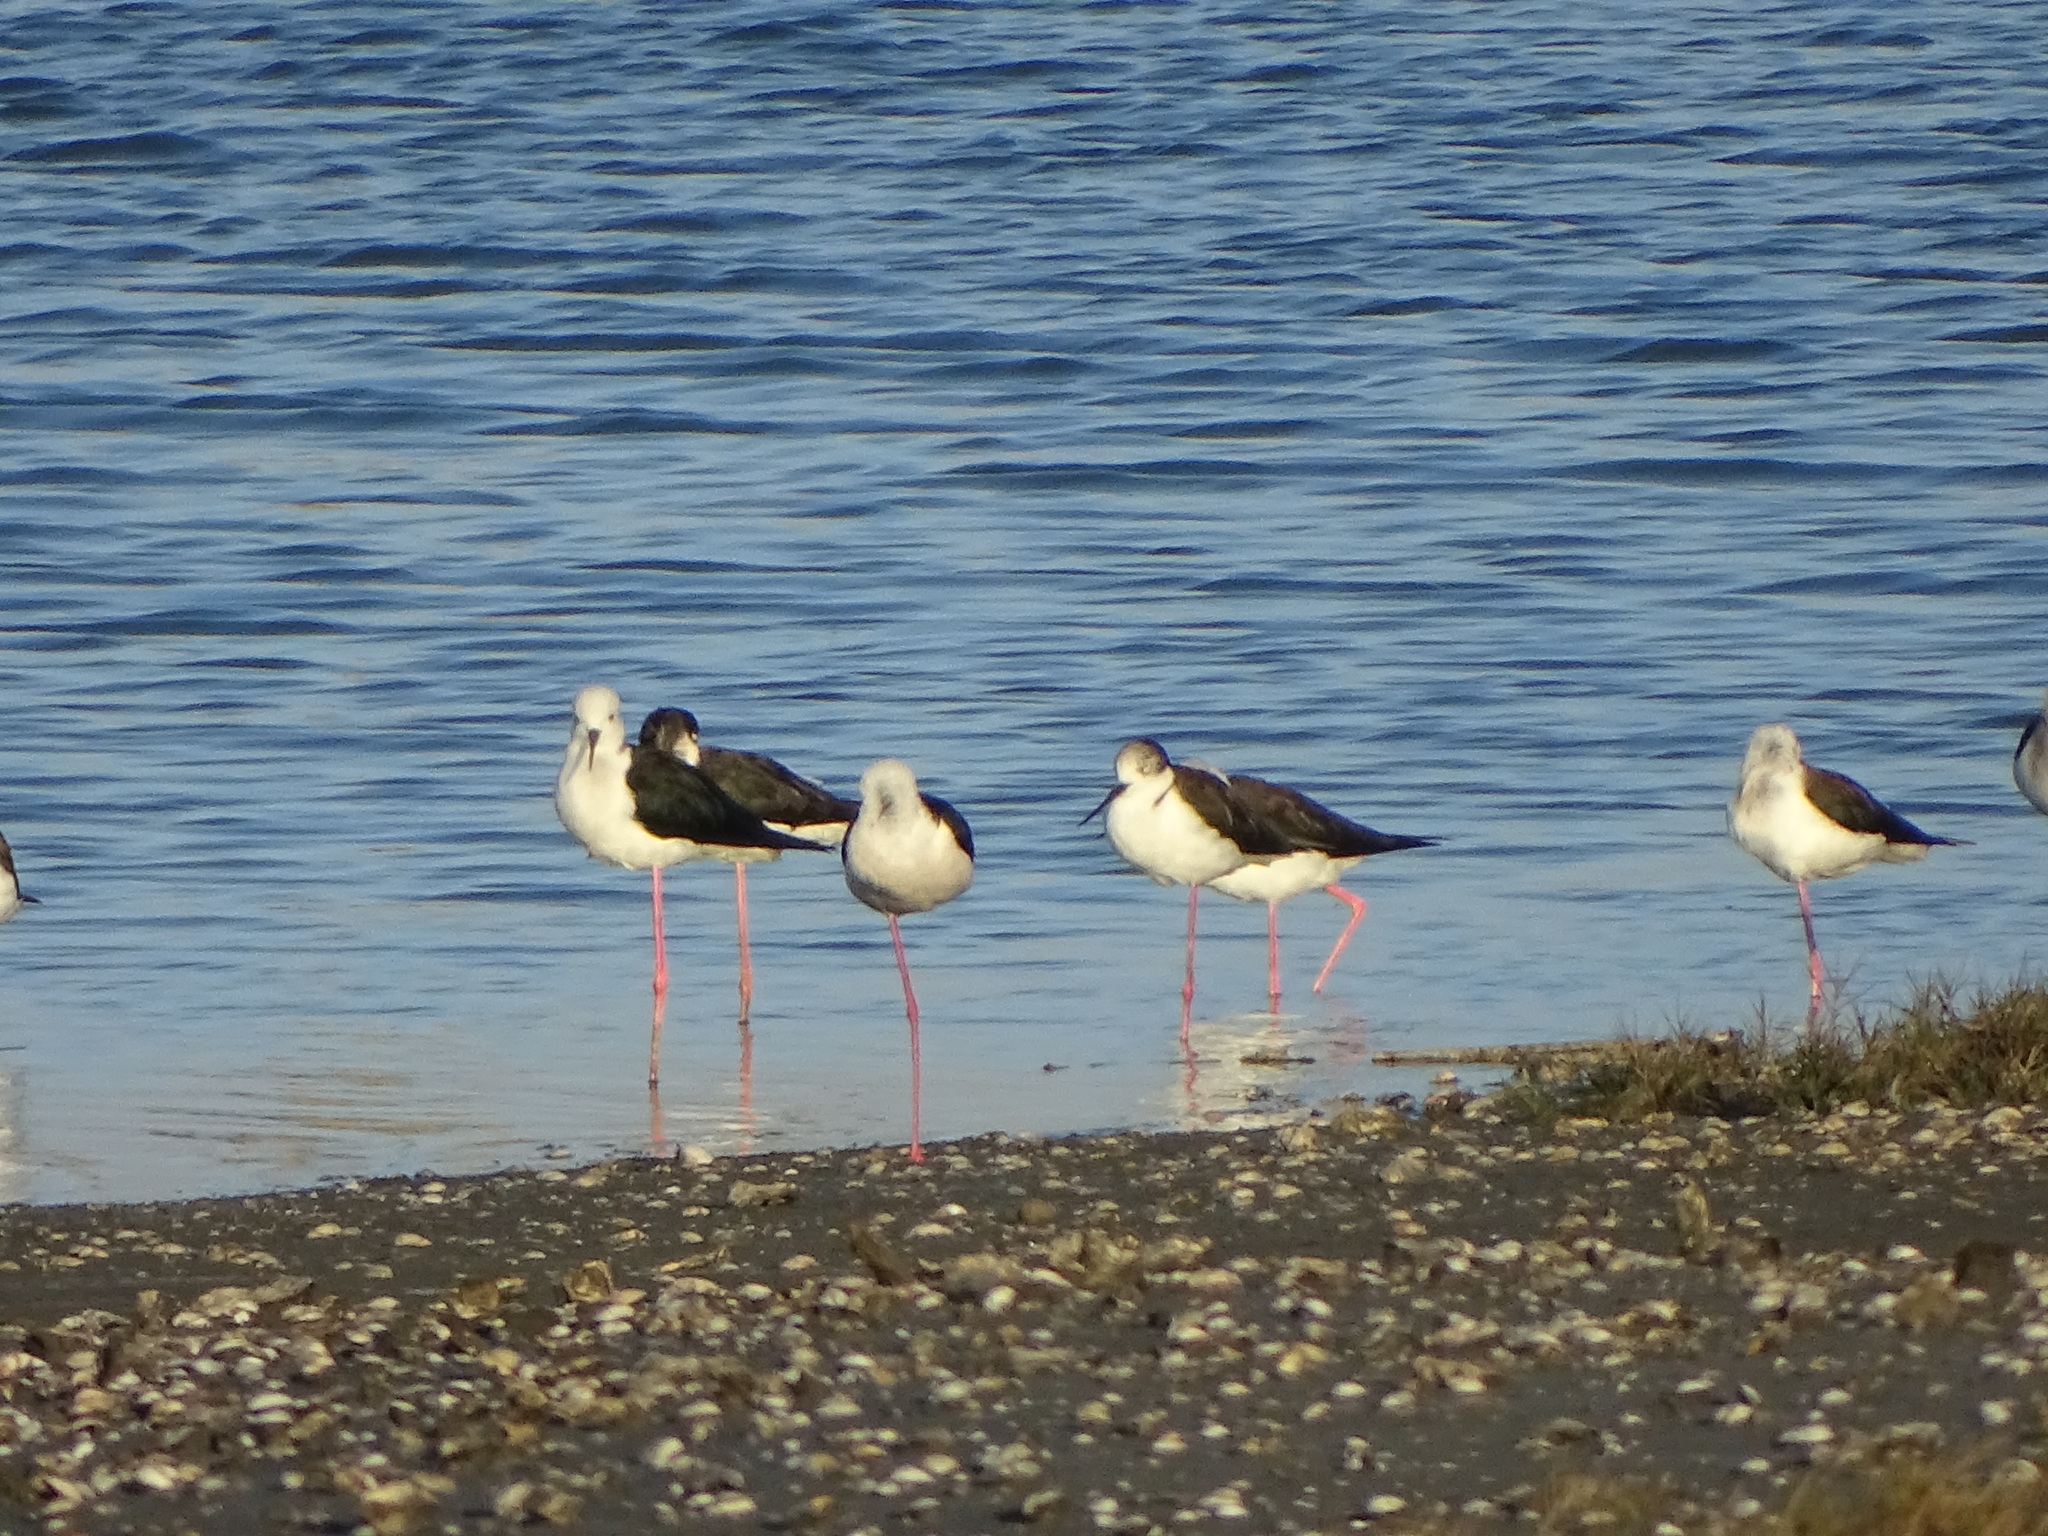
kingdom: Animalia
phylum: Chordata
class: Aves
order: Charadriiformes
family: Recurvirostridae
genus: Himantopus
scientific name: Himantopus himantopus
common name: Black-winged stilt
